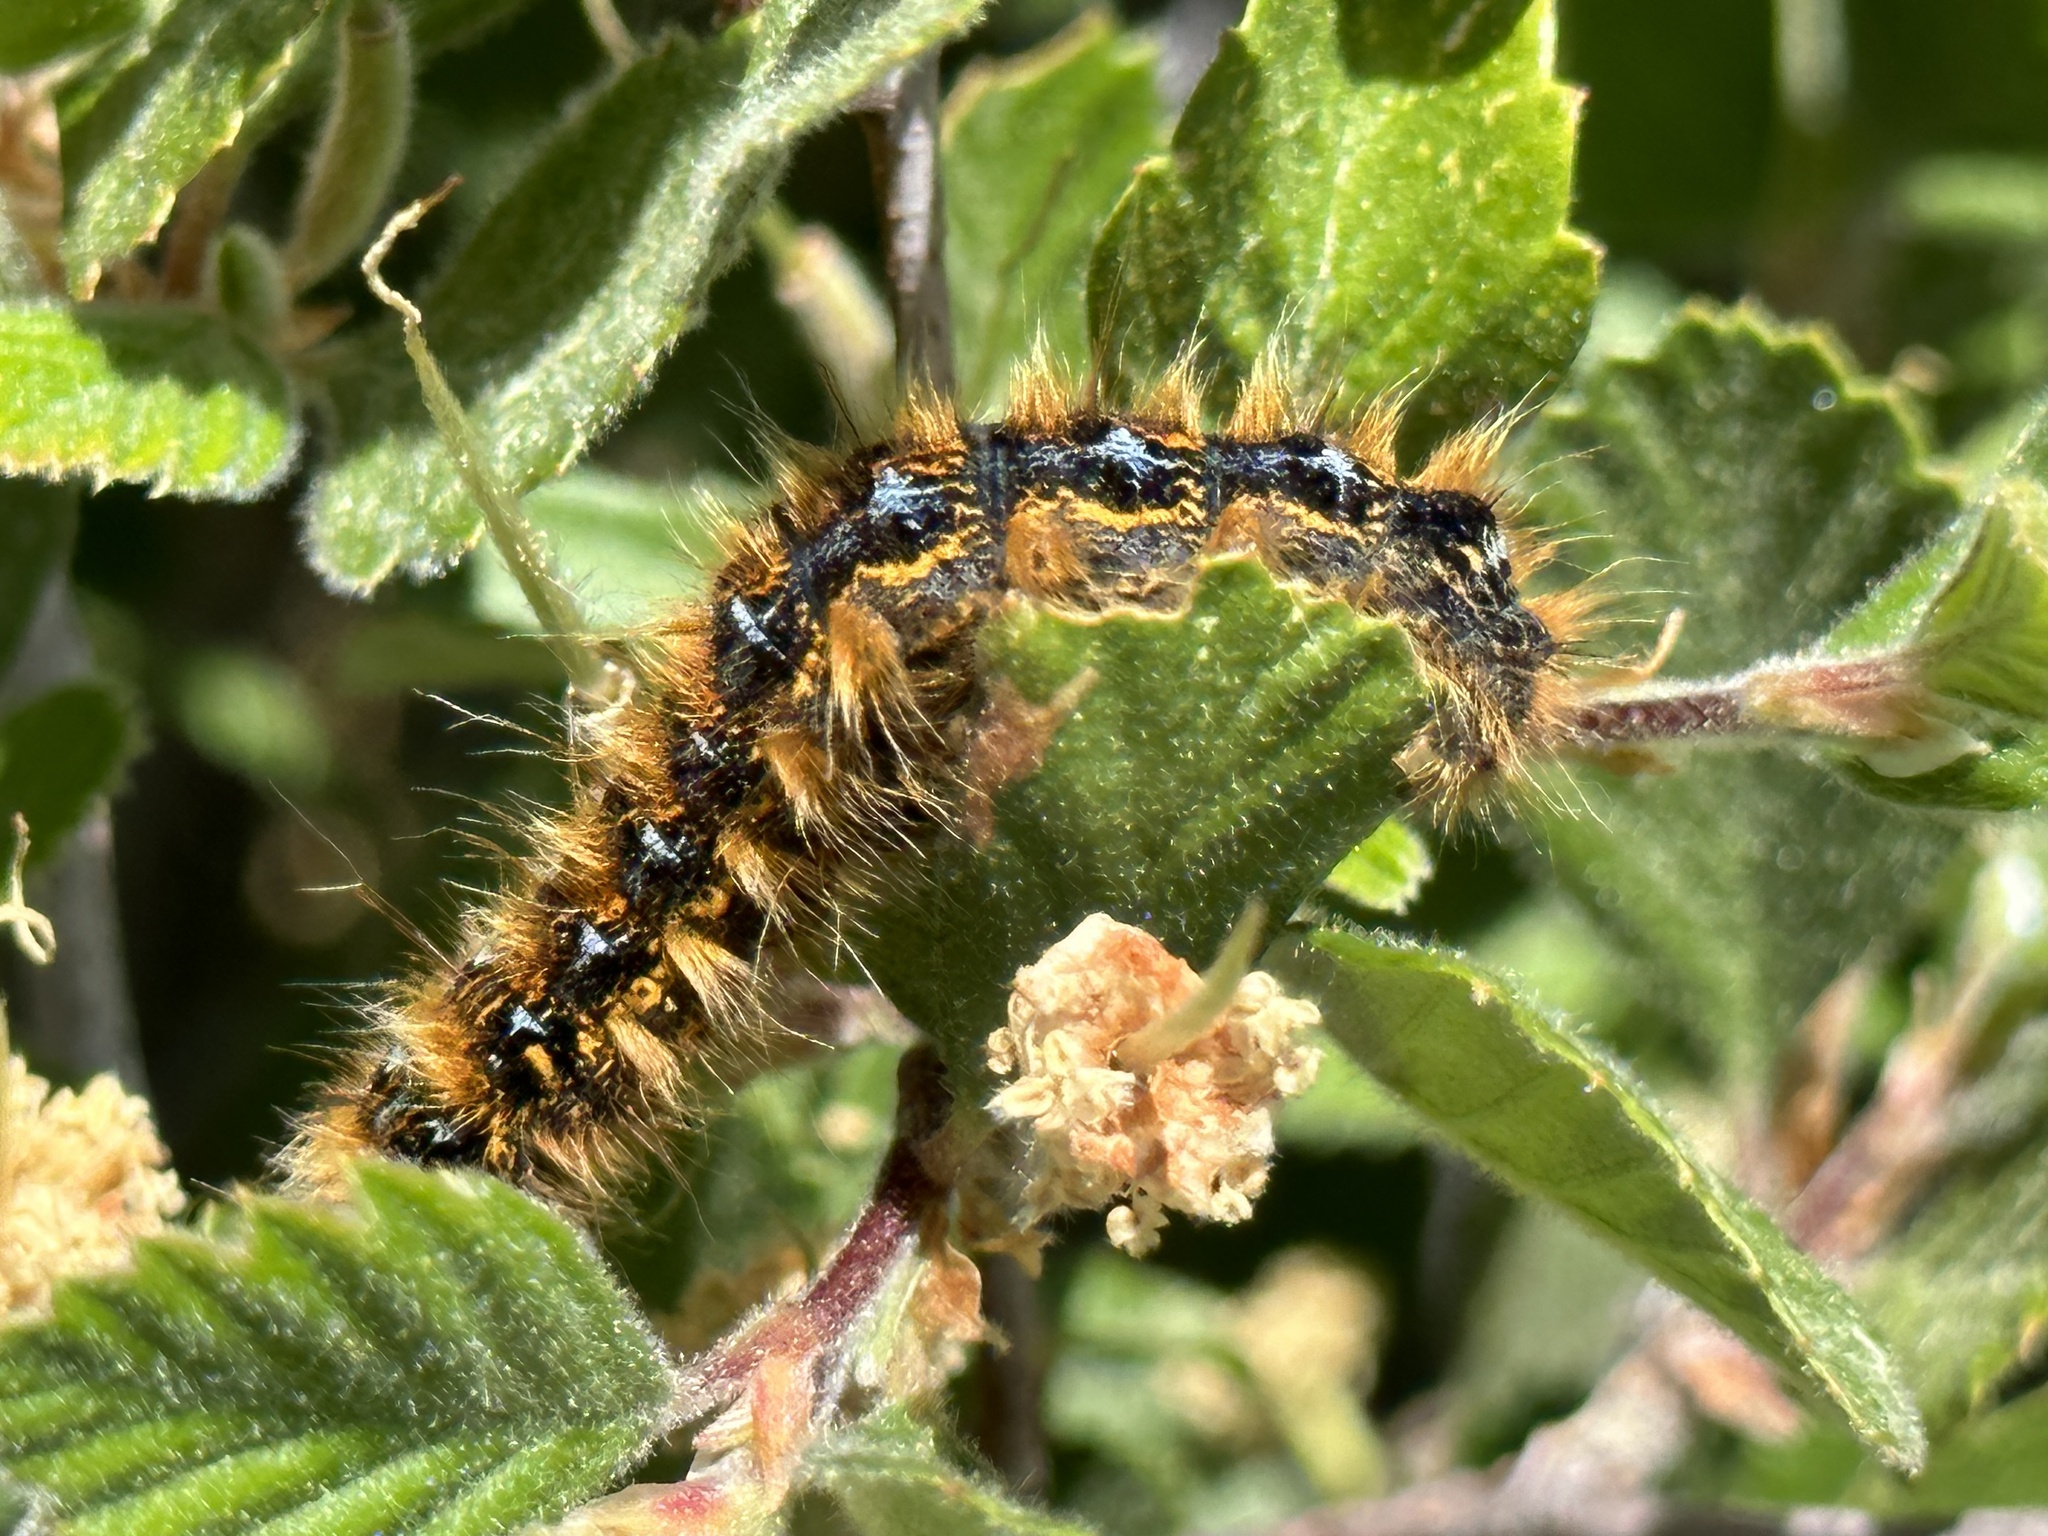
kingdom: Animalia
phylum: Arthropoda
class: Insecta
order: Lepidoptera
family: Lasiocampidae
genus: Malacosoma
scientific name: Malacosoma constricta
